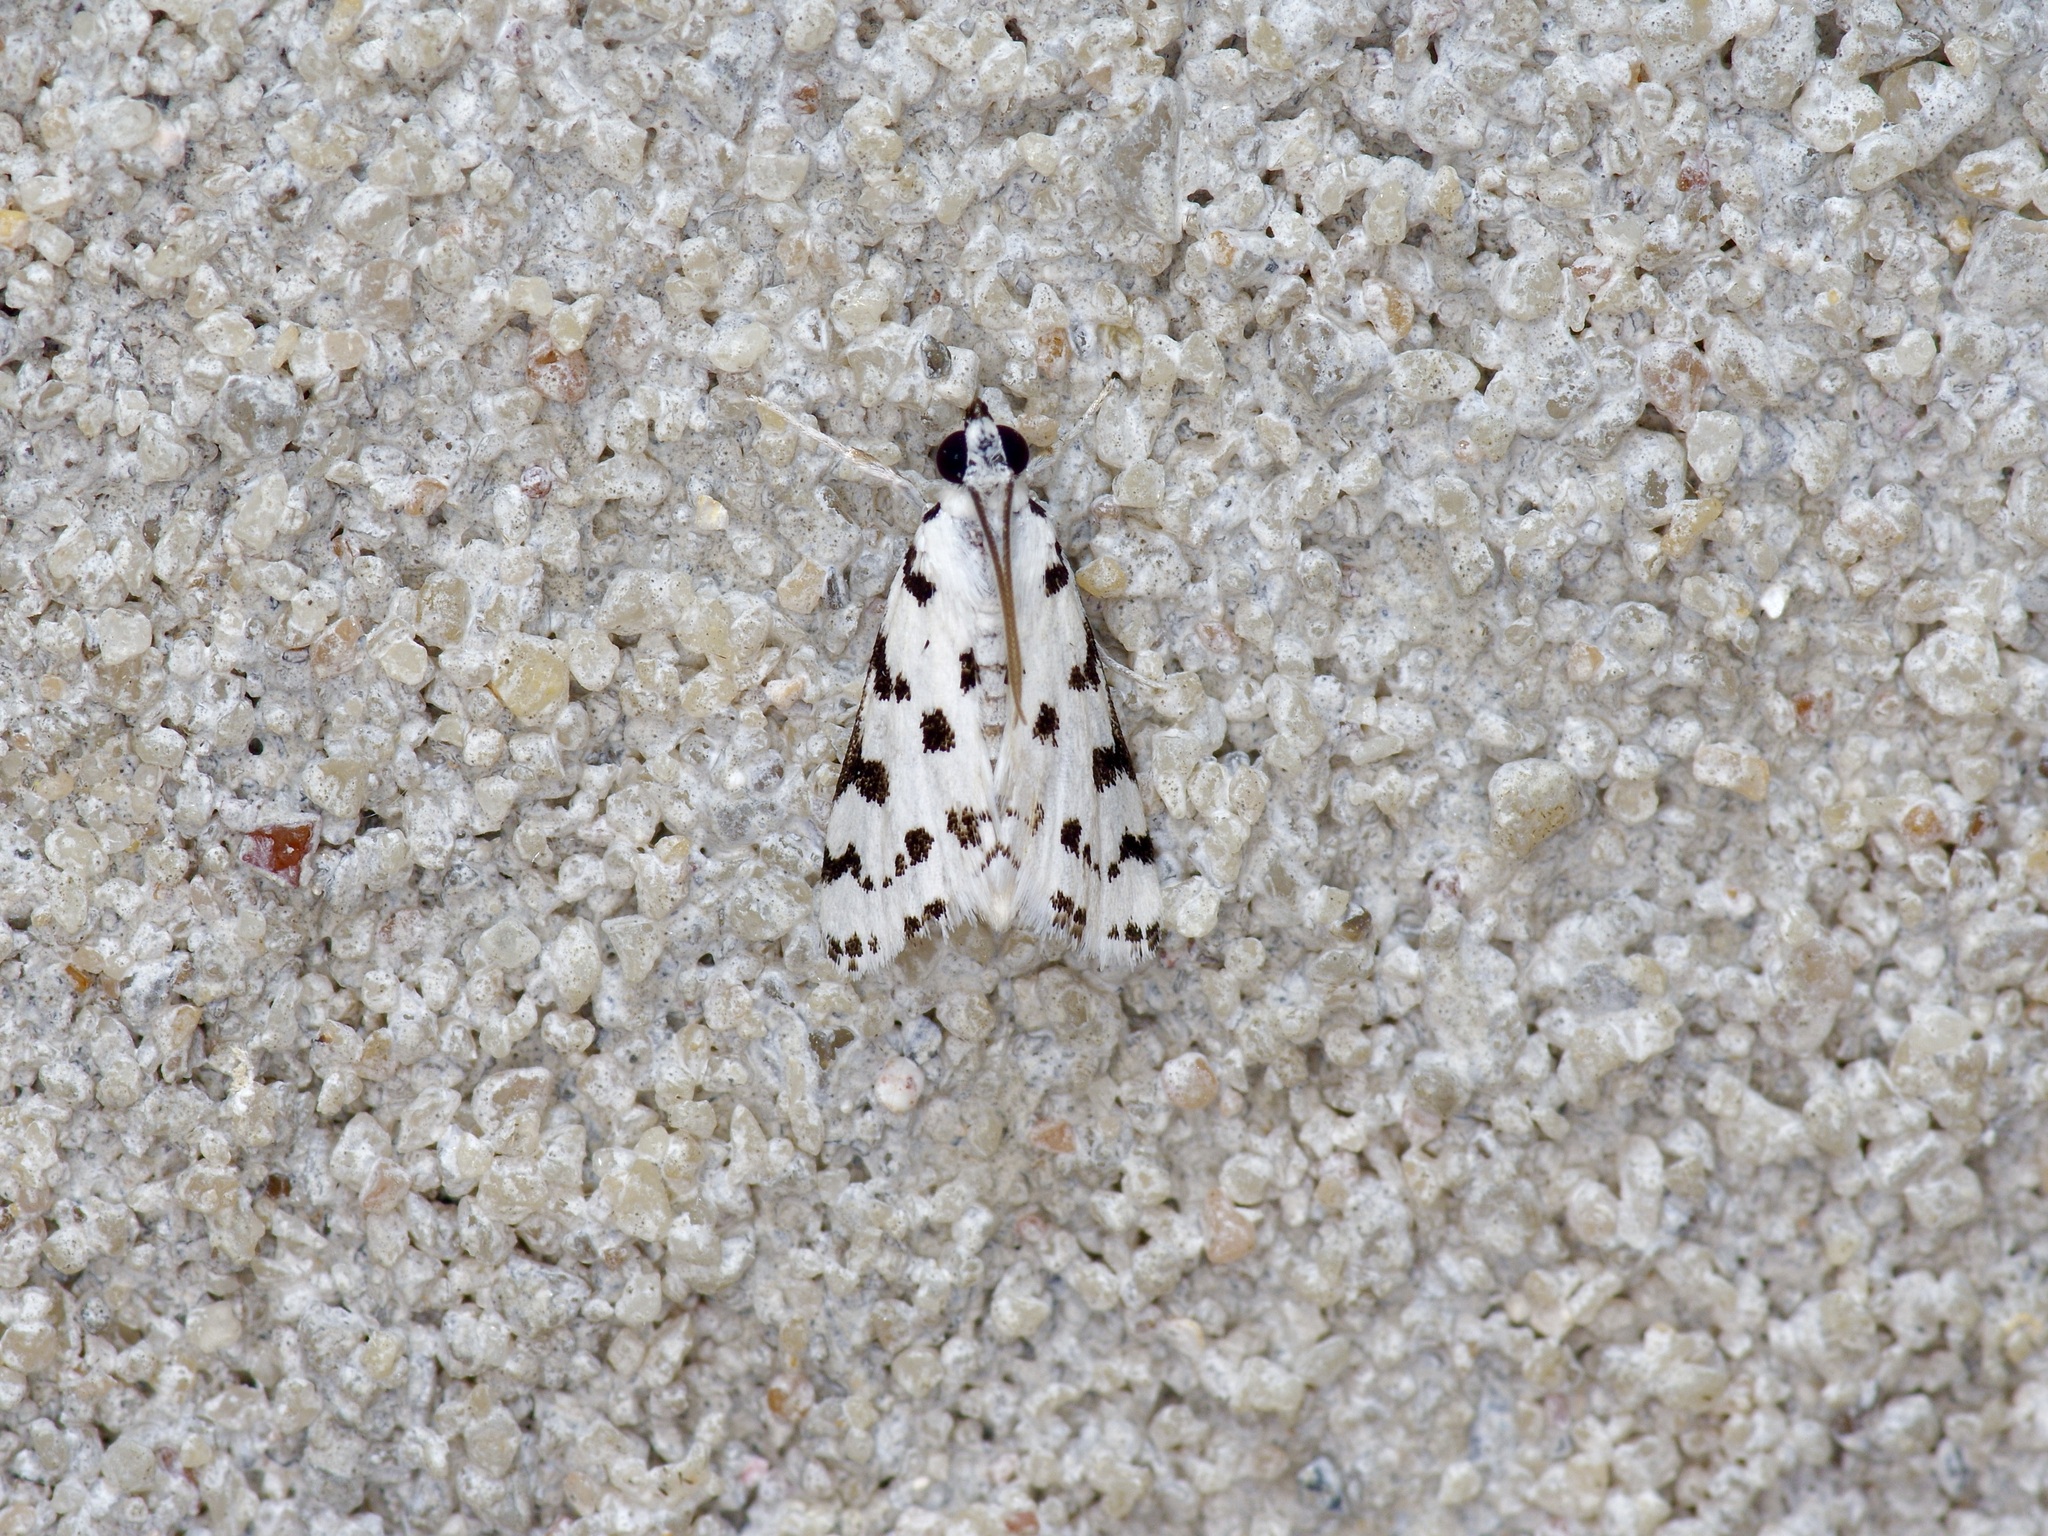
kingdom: Animalia
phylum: Arthropoda
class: Insecta
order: Lepidoptera
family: Crambidae
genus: Eustixia
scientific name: Eustixia pupula
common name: American cabbage pearl
